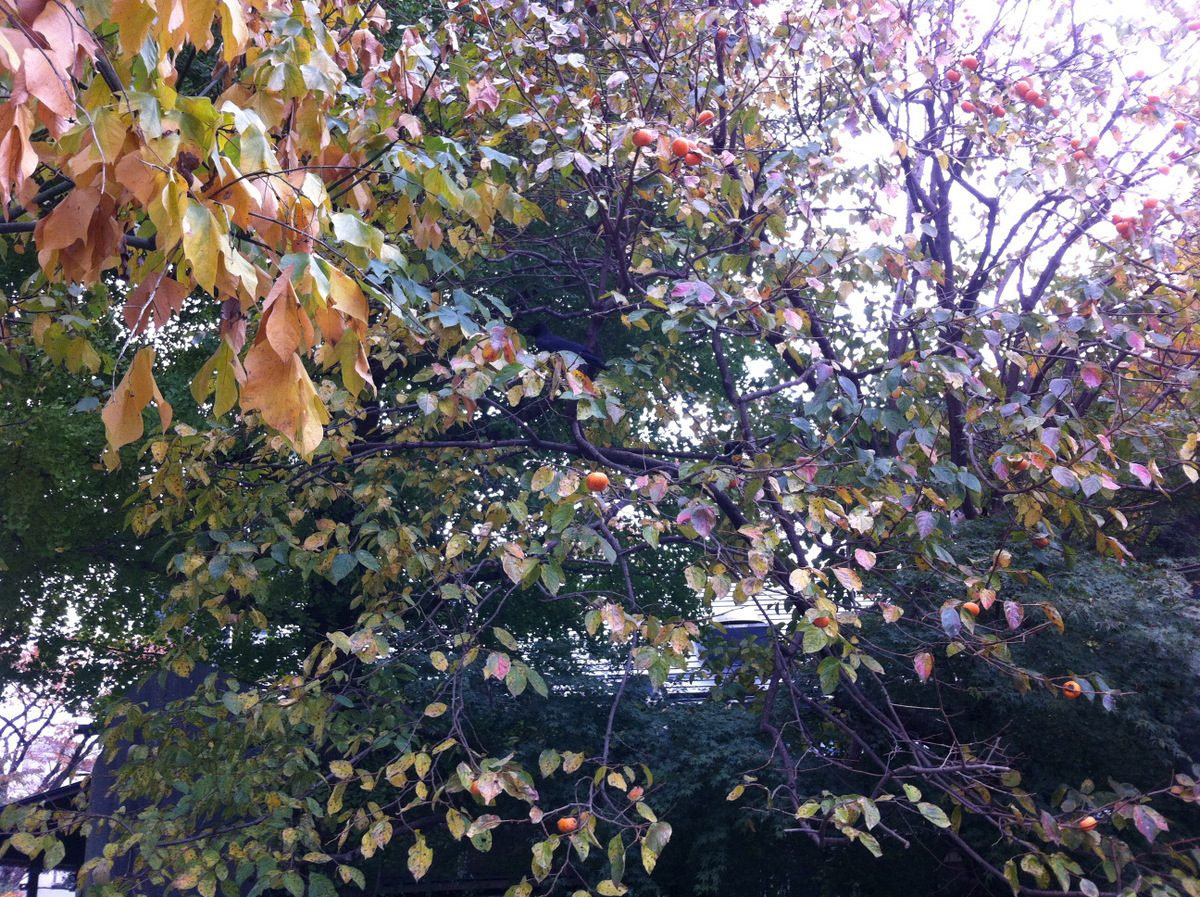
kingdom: Plantae
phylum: Tracheophyta
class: Magnoliopsida
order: Ericales
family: Ebenaceae
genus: Diospyros
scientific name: Diospyros kaki
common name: Persimmon
